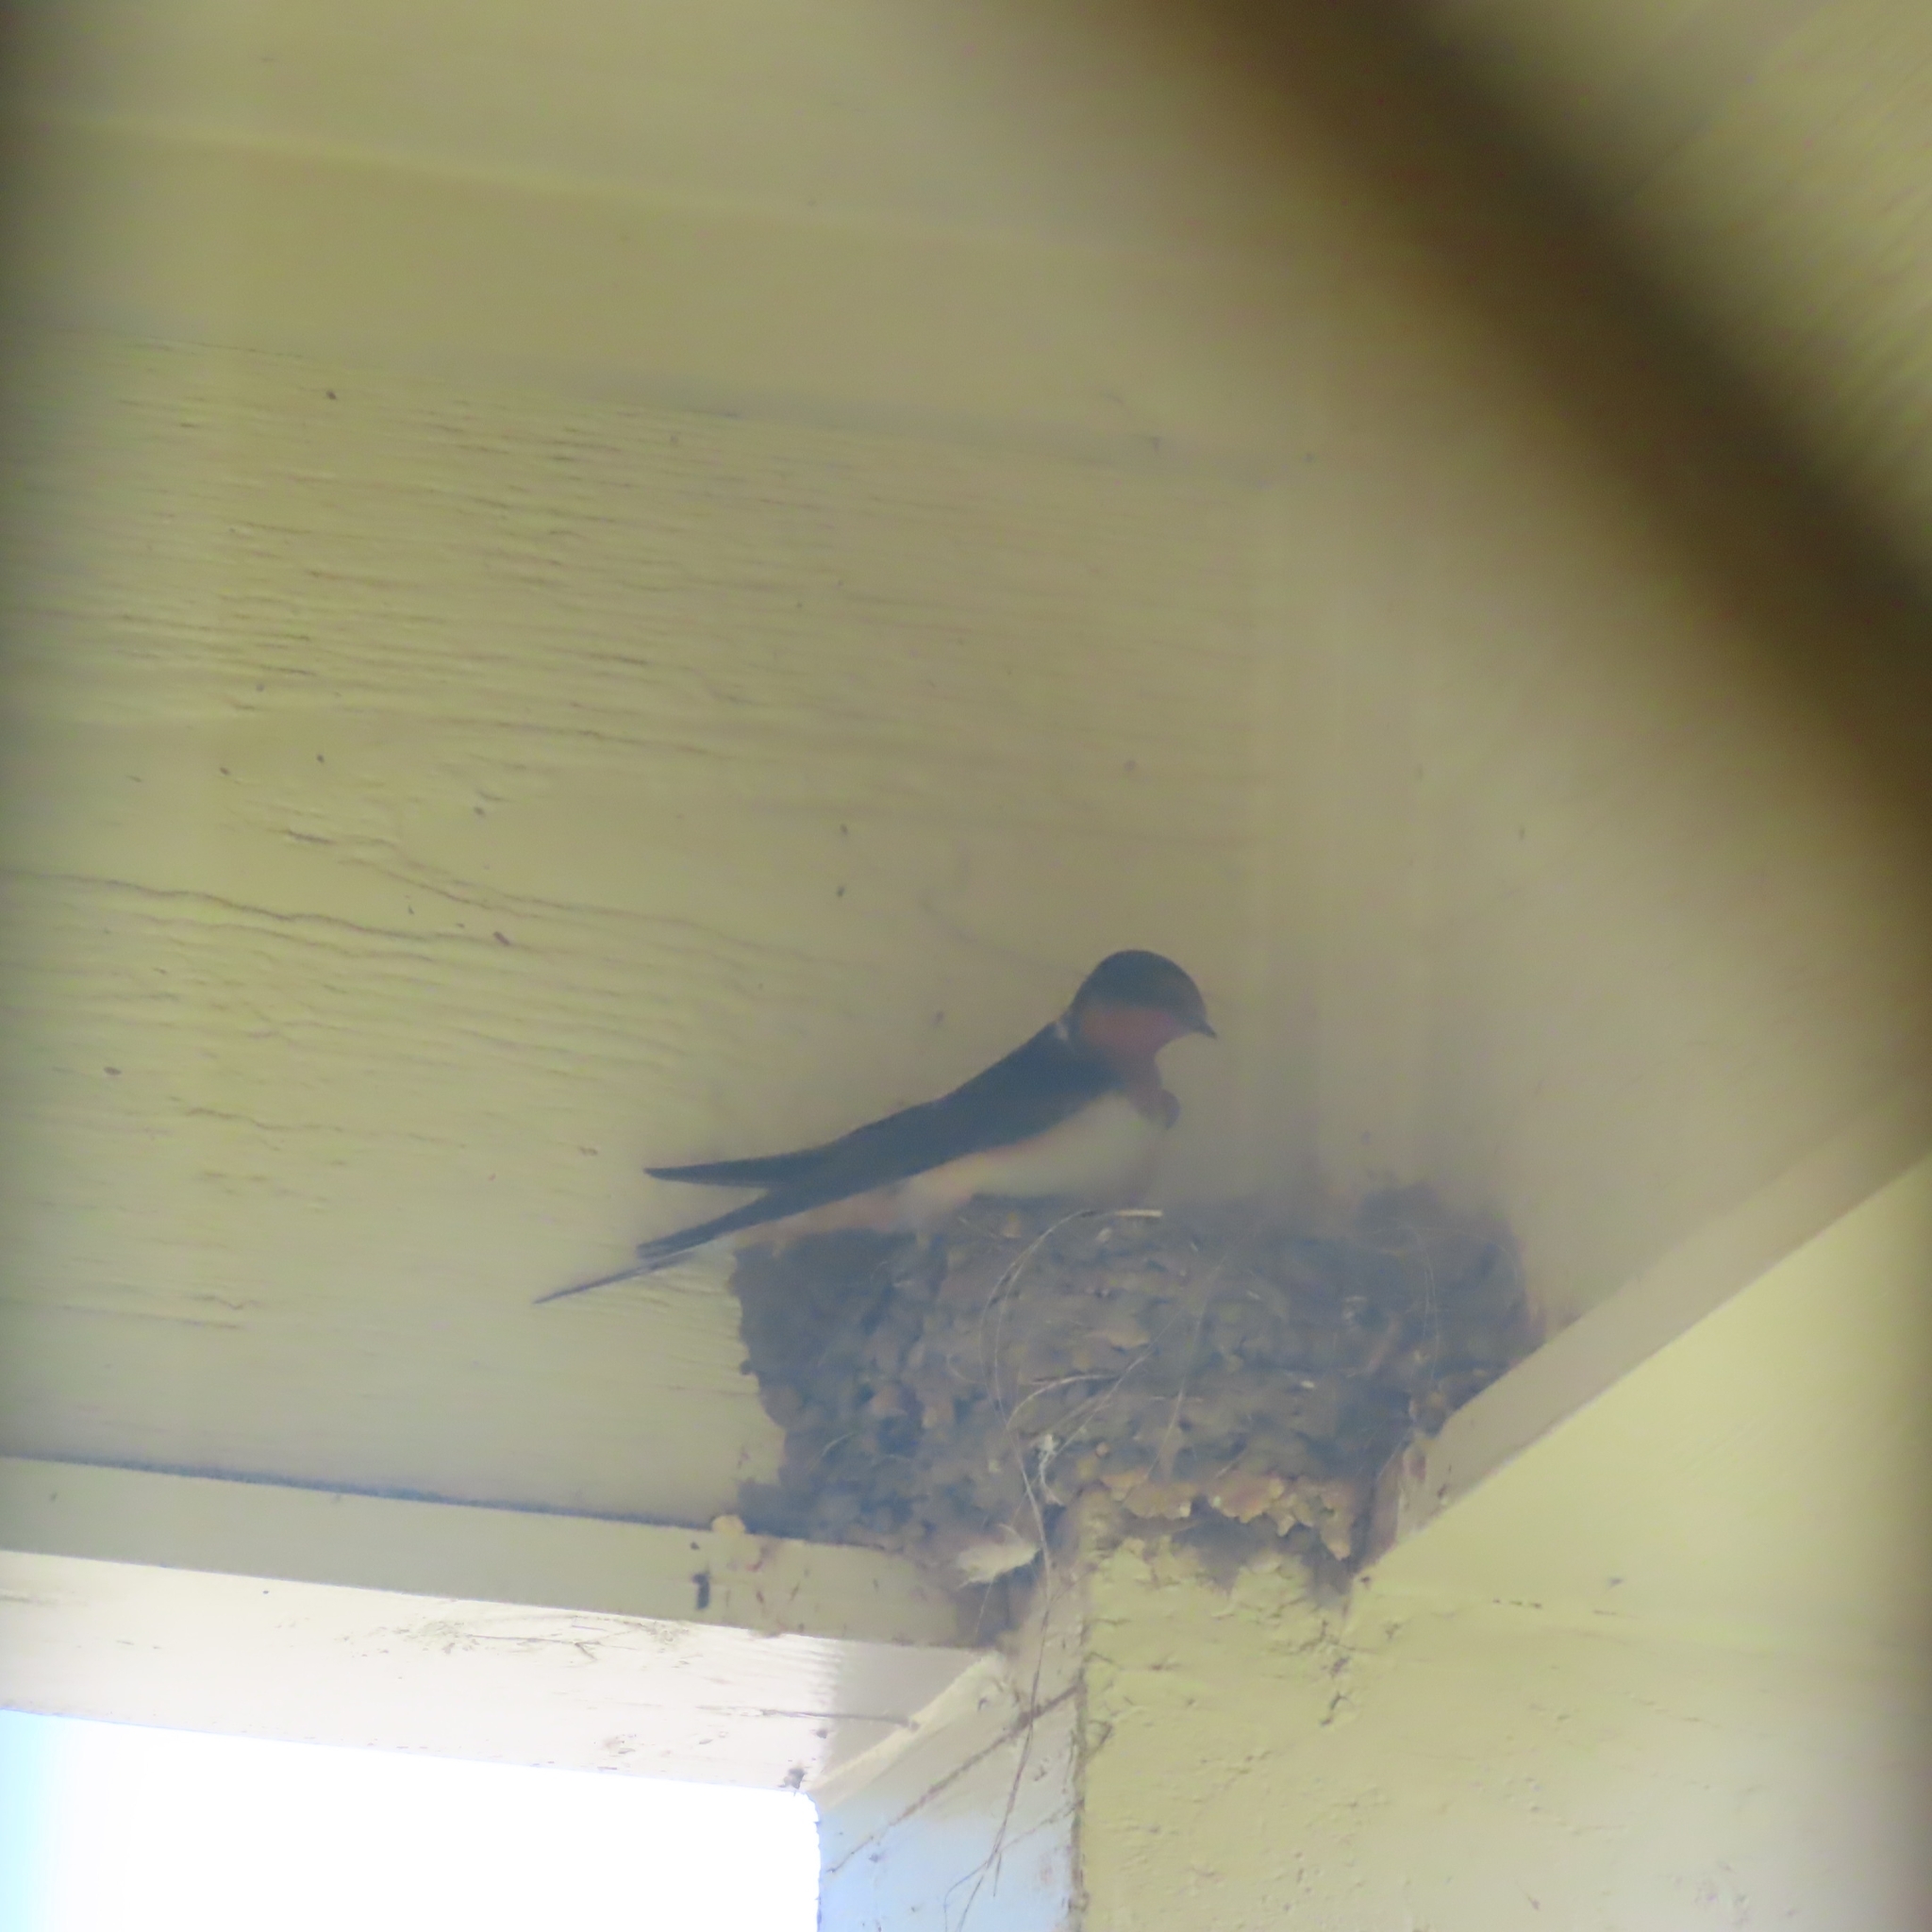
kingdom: Animalia
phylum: Chordata
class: Aves
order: Passeriformes
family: Hirundinidae
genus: Hirundo
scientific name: Hirundo rustica
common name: Barn swallow
